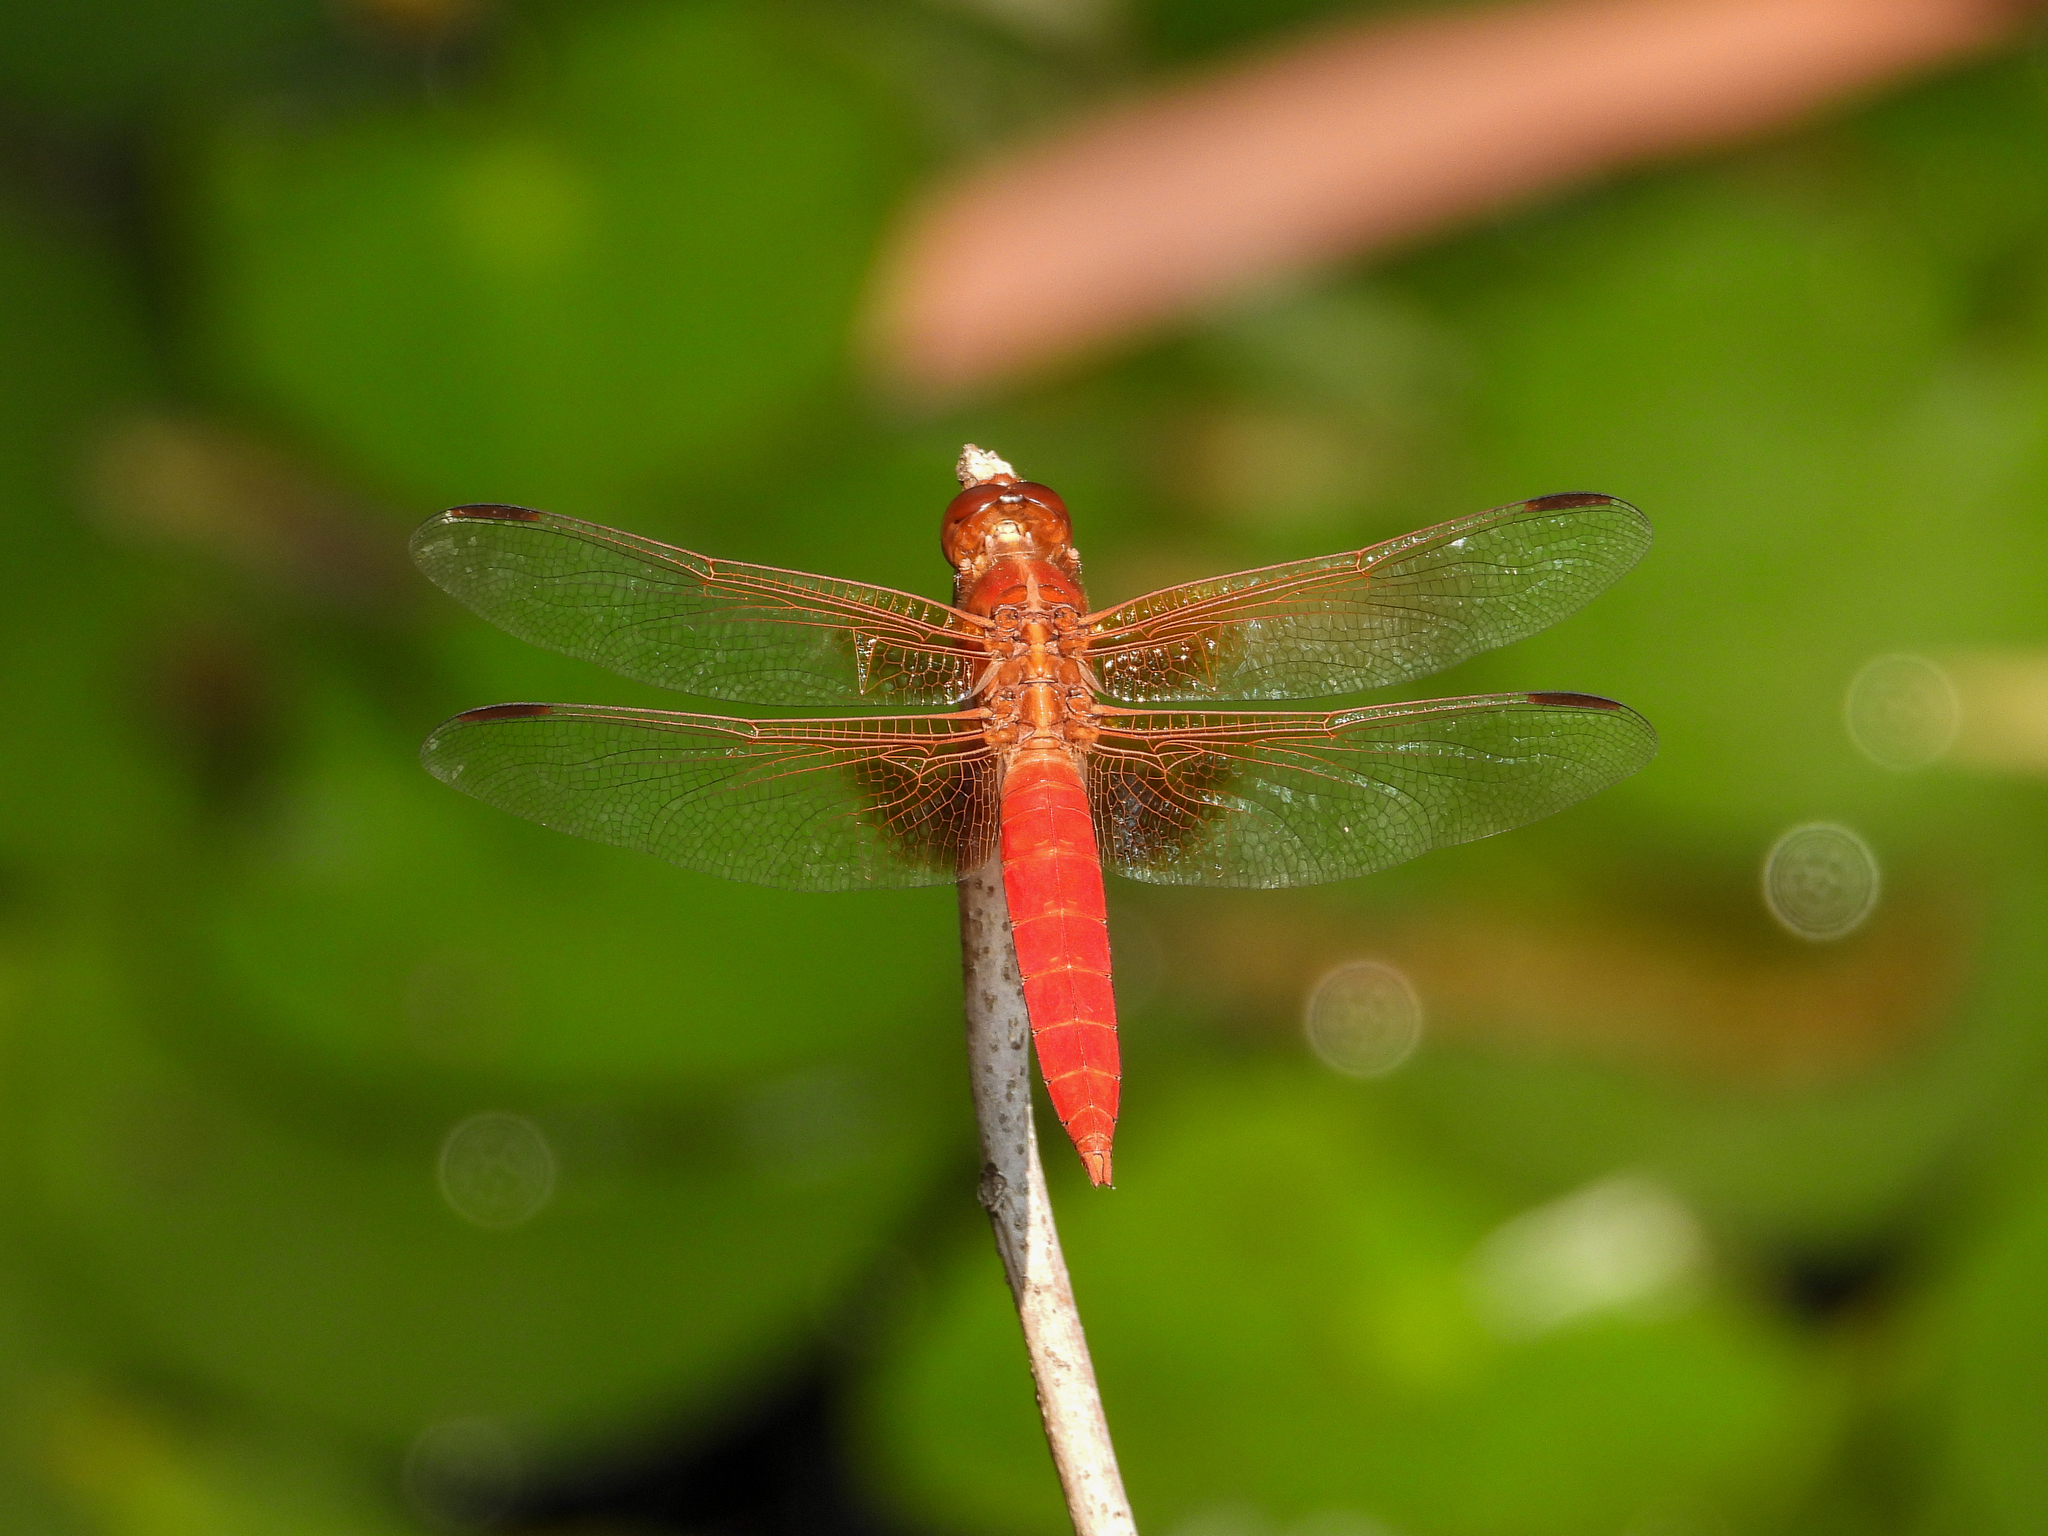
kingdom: Animalia
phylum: Arthropoda
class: Insecta
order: Odonata
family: Libellulidae
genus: Libellula
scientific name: Libellula croceipennis
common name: Neon skimmer
